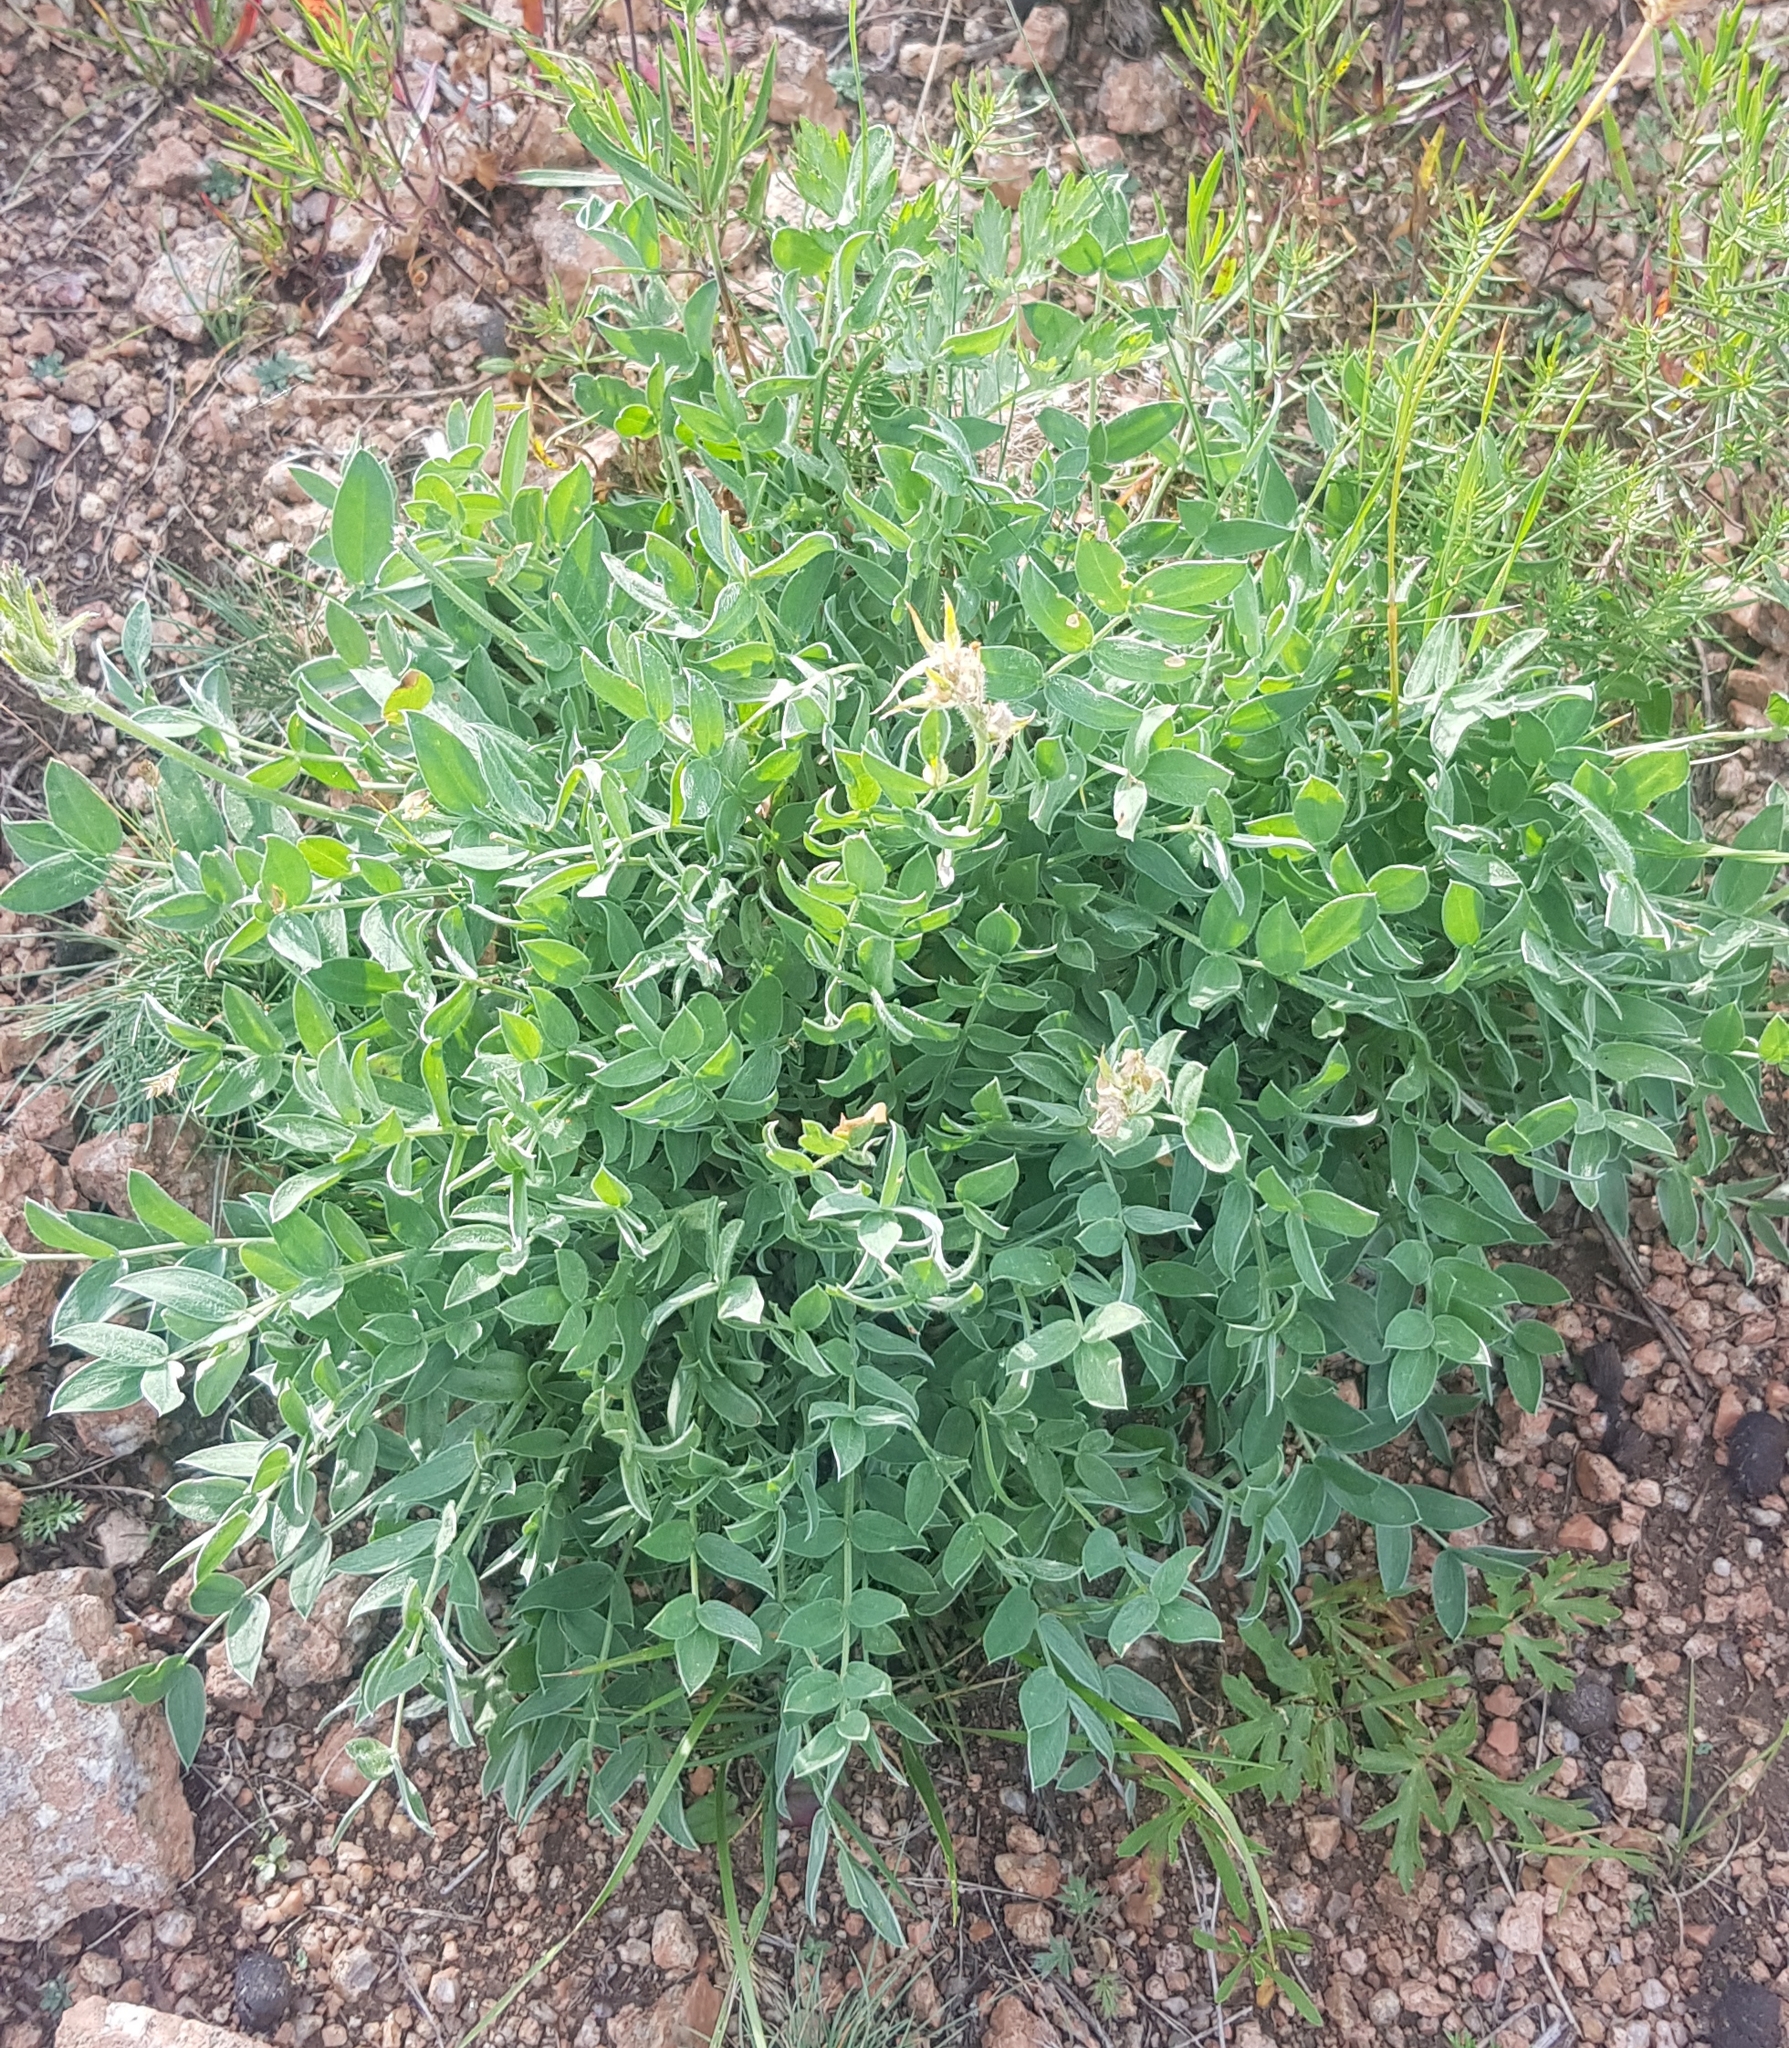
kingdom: Plantae
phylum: Tracheophyta
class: Magnoliopsida
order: Fabales
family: Fabaceae
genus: Astragalus
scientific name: Astragalus laxmannii
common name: Laxmann's milk-vetch
